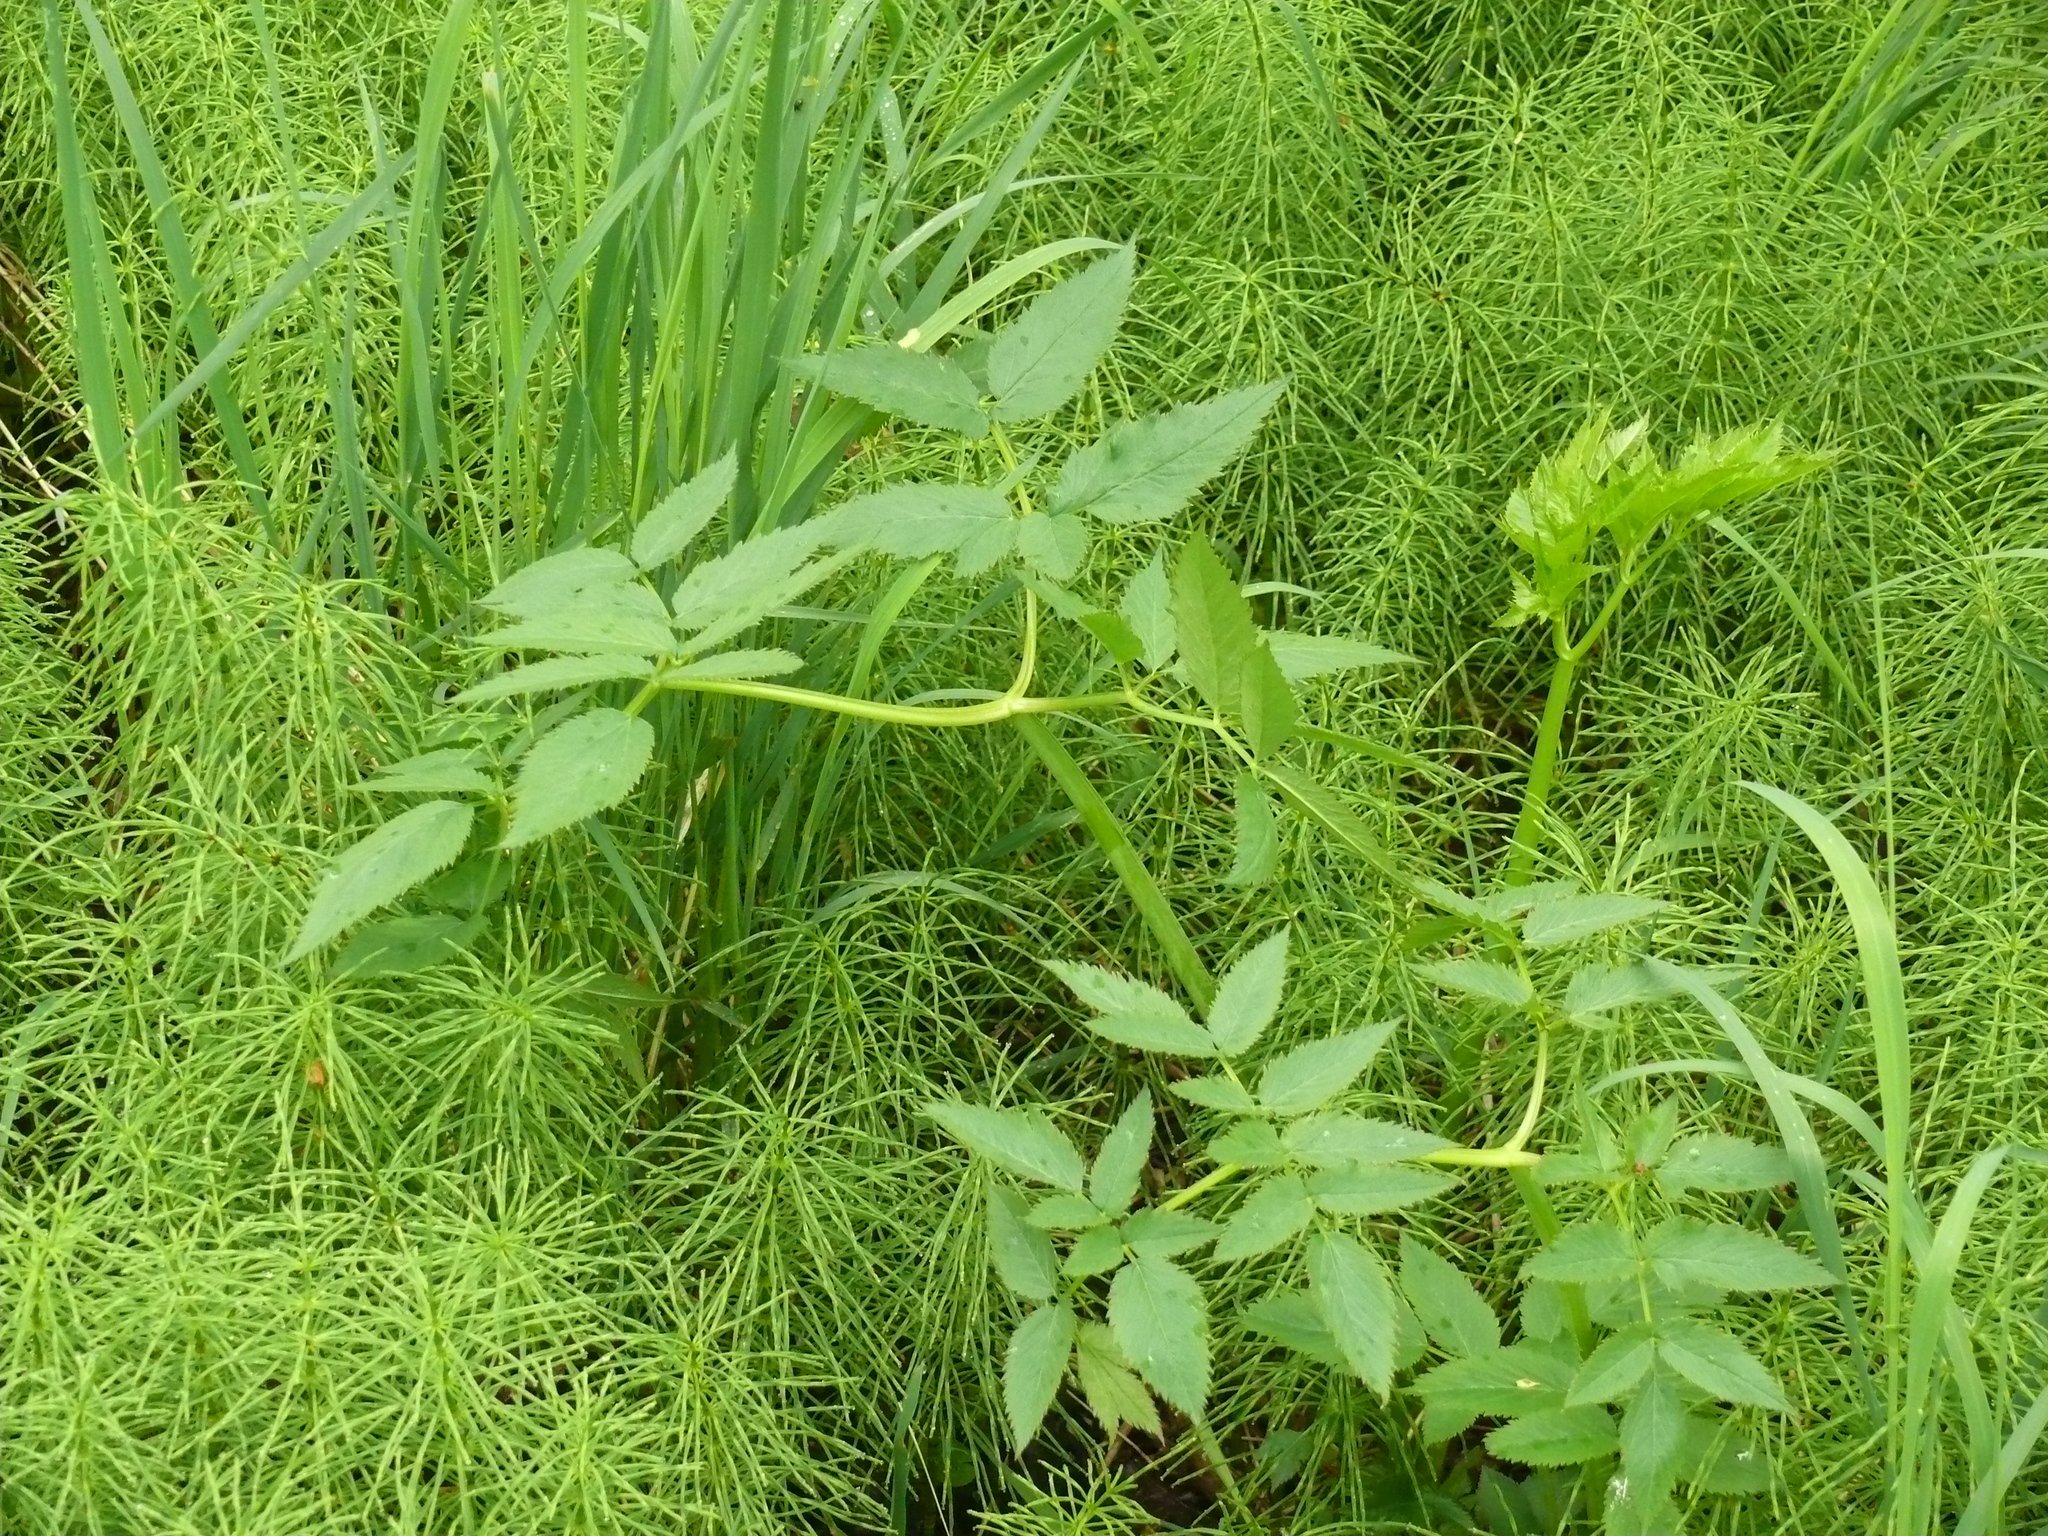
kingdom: Plantae
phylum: Tracheophyta
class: Magnoliopsida
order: Apiales
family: Apiaceae
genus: Angelica
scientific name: Angelica genuflexa
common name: Kneeling angelica
